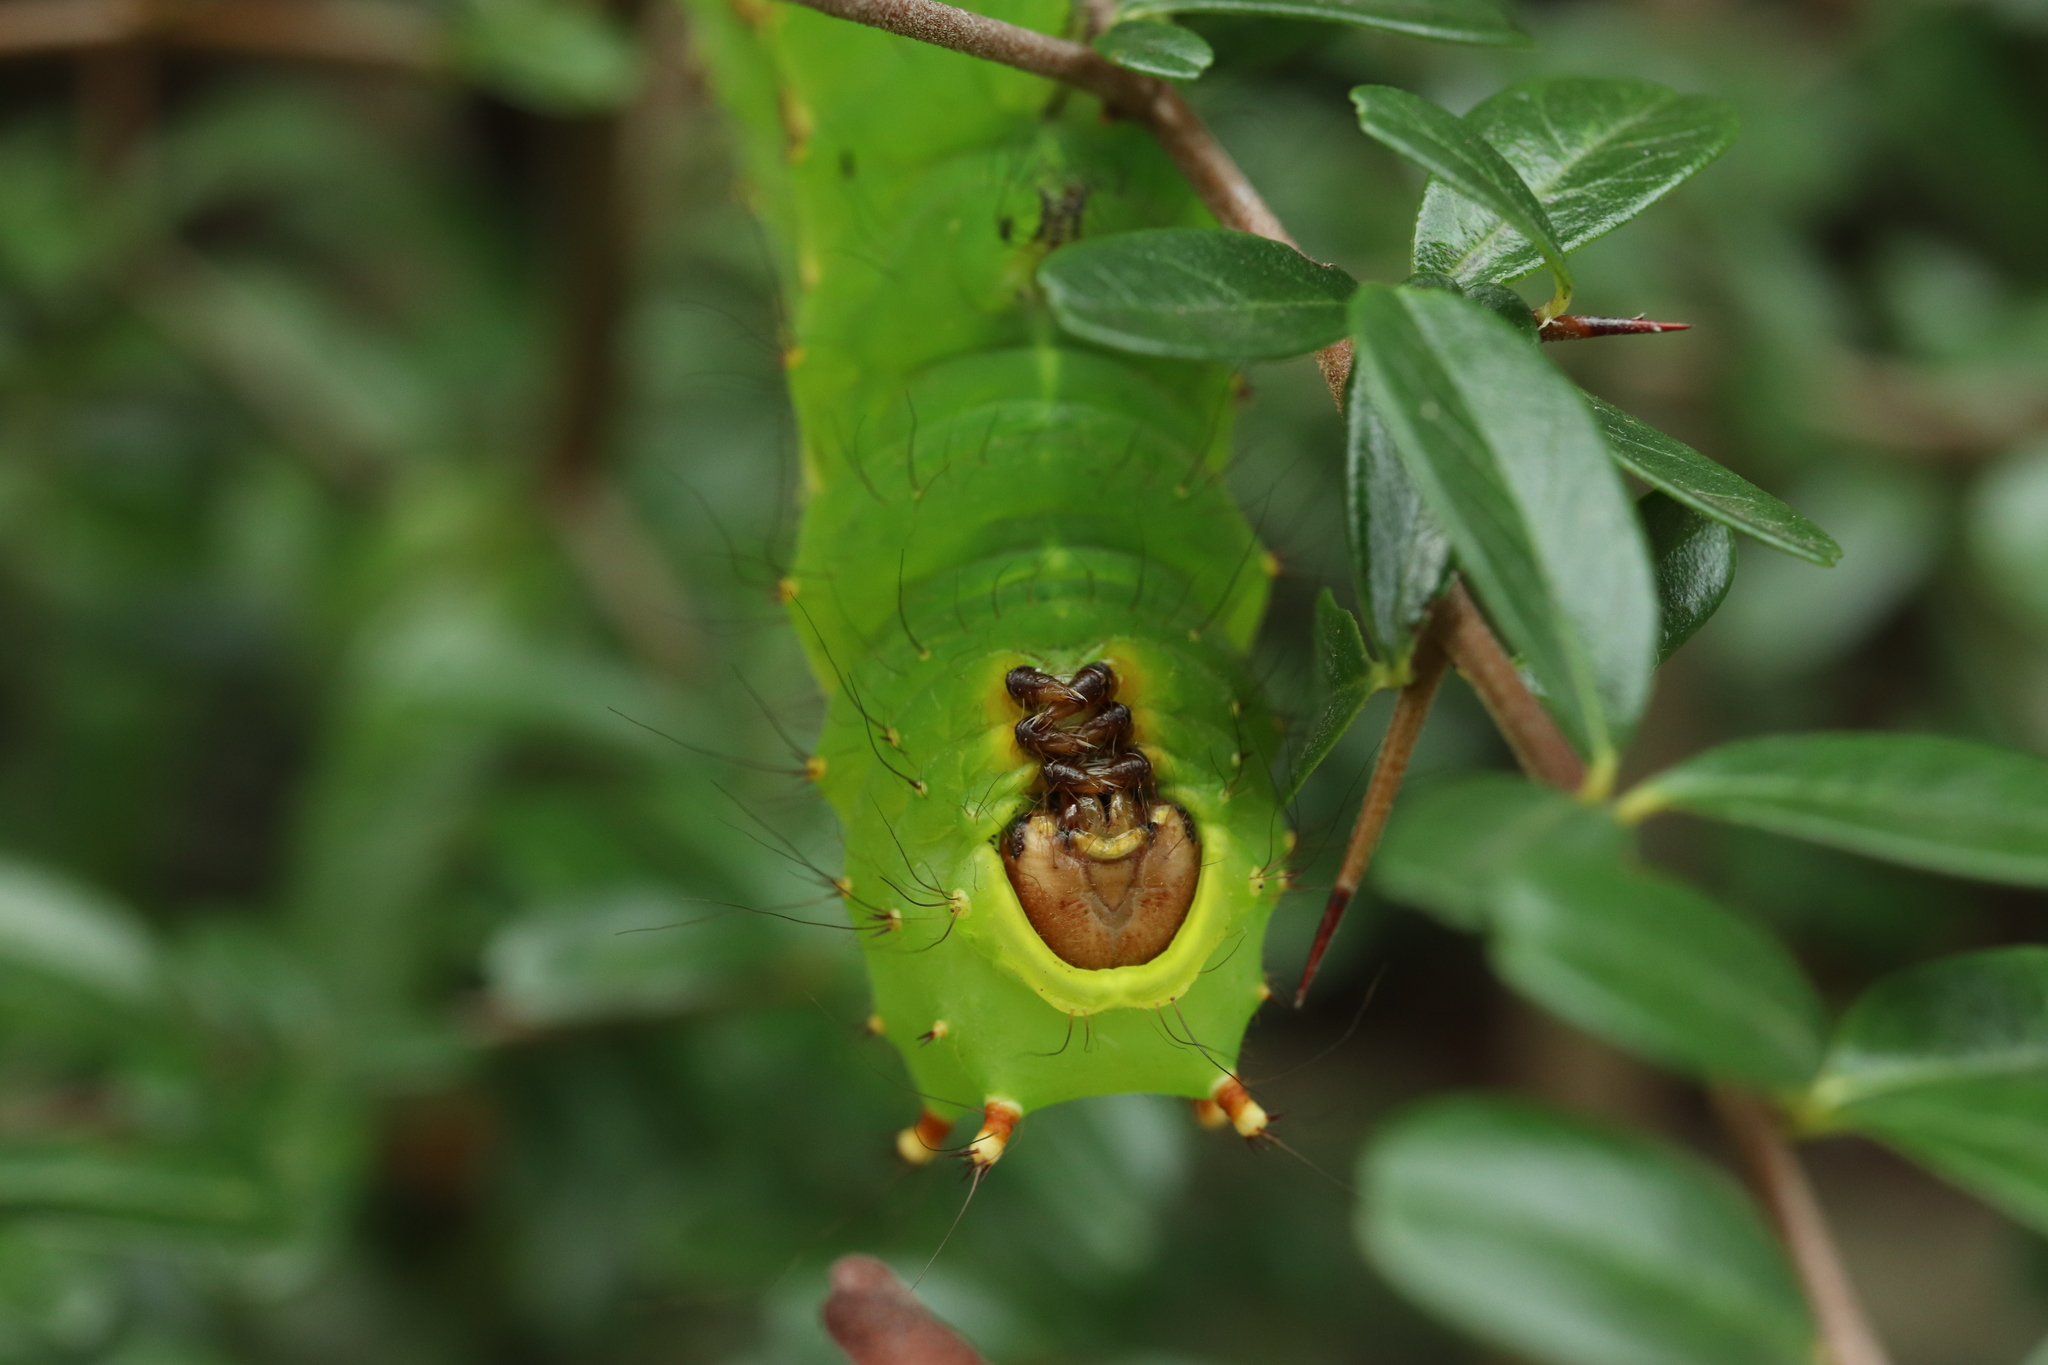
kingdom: Animalia
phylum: Arthropoda
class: Insecta
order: Lepidoptera
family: Saturniidae
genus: Actias
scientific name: Actias aliena
